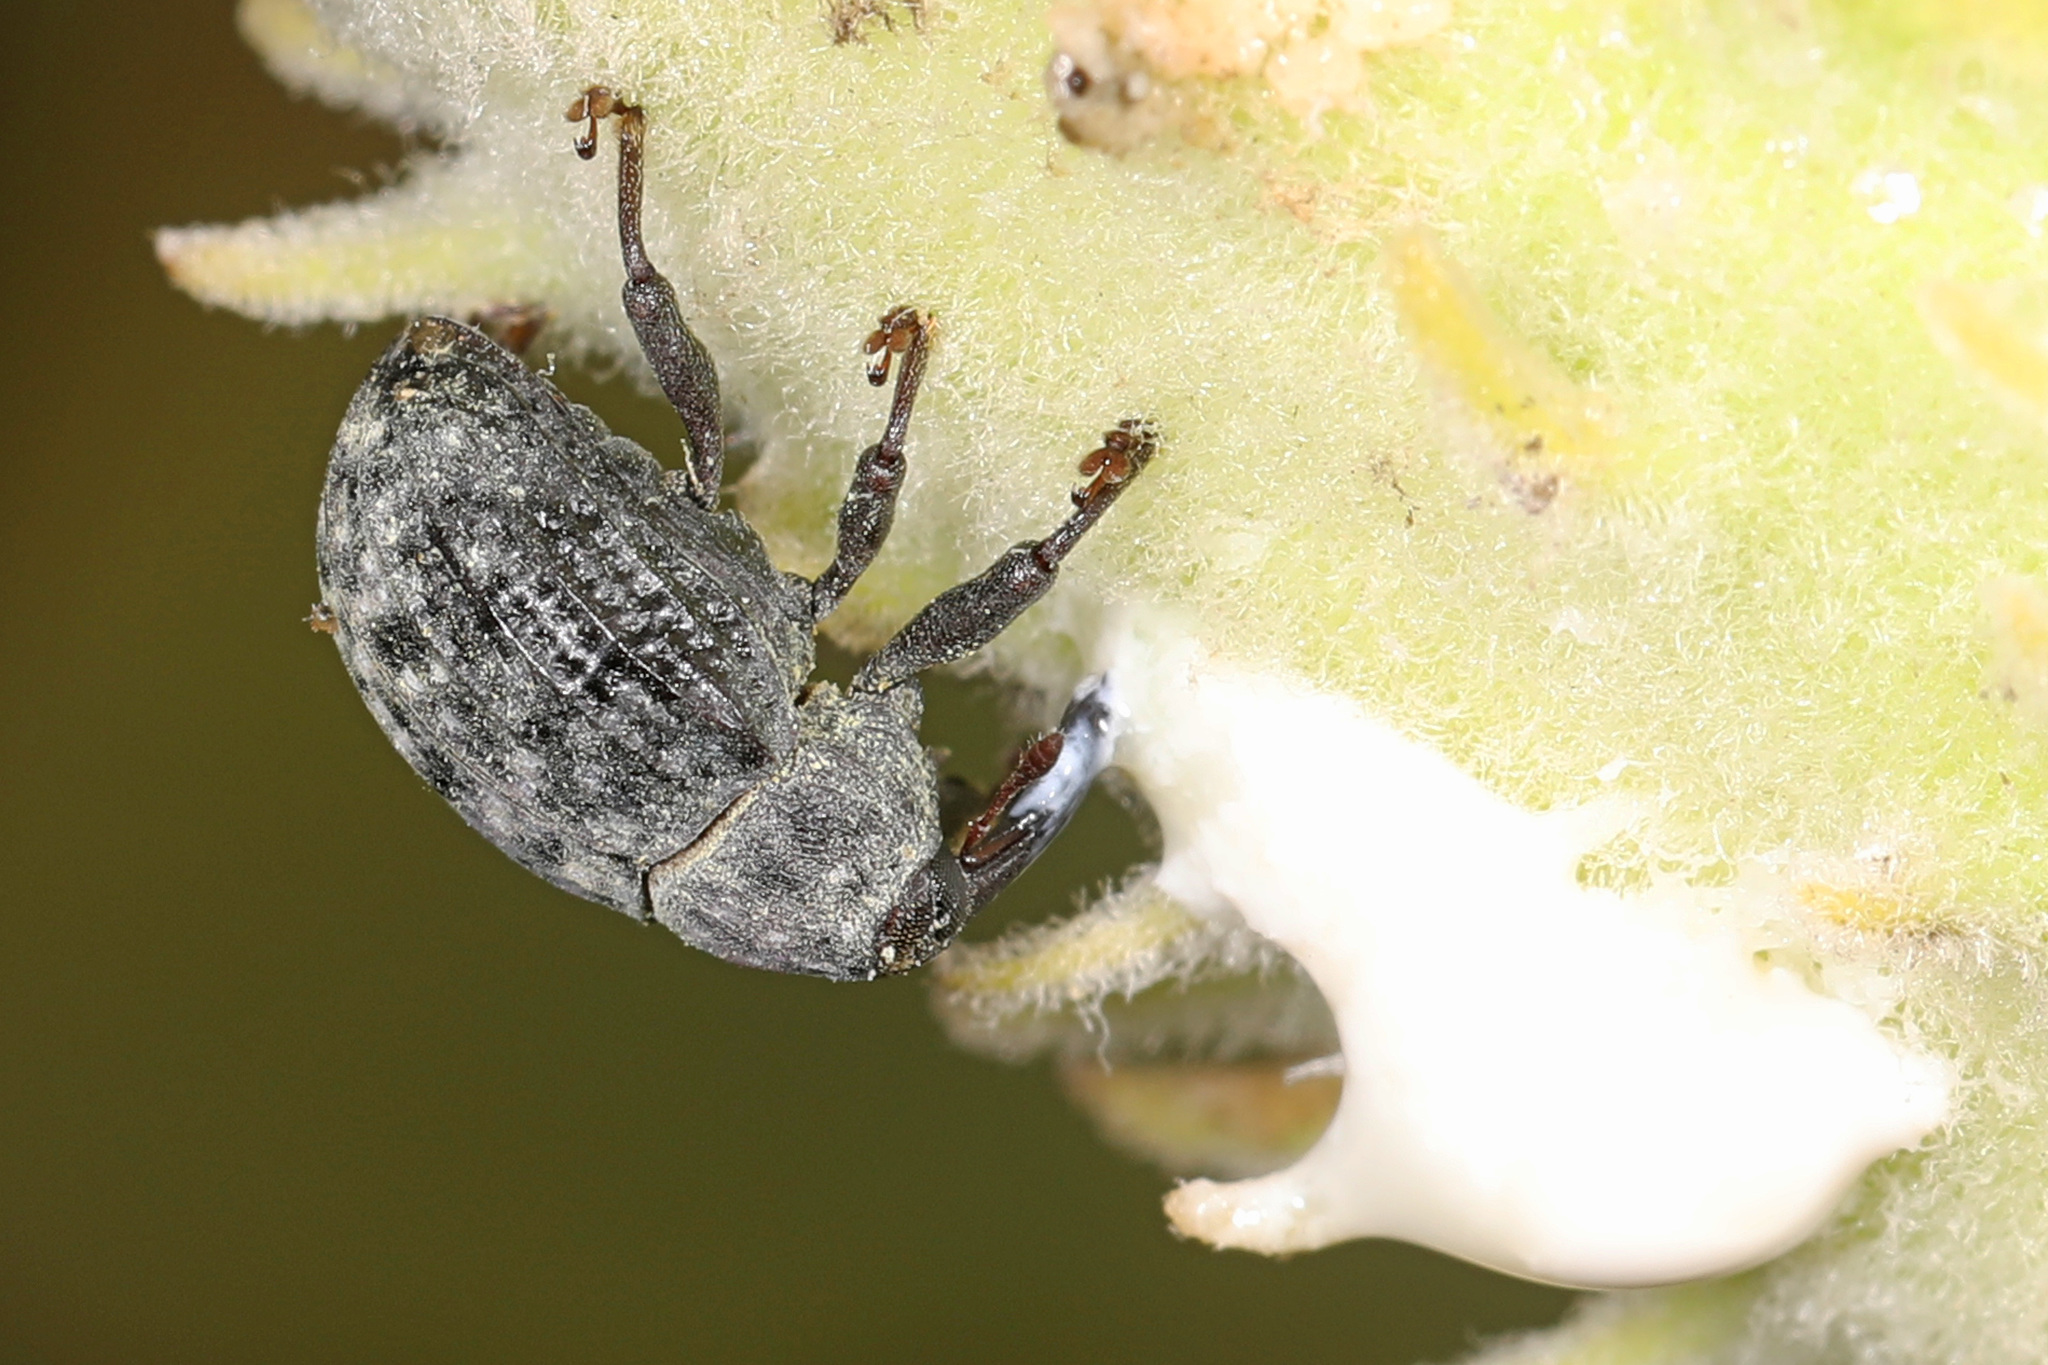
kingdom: Animalia
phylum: Arthropoda
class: Insecta
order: Coleoptera
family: Curculionidae
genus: Rhyssomatus
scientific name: Rhyssomatus lineaticollis
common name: Milkweed stem weevil
